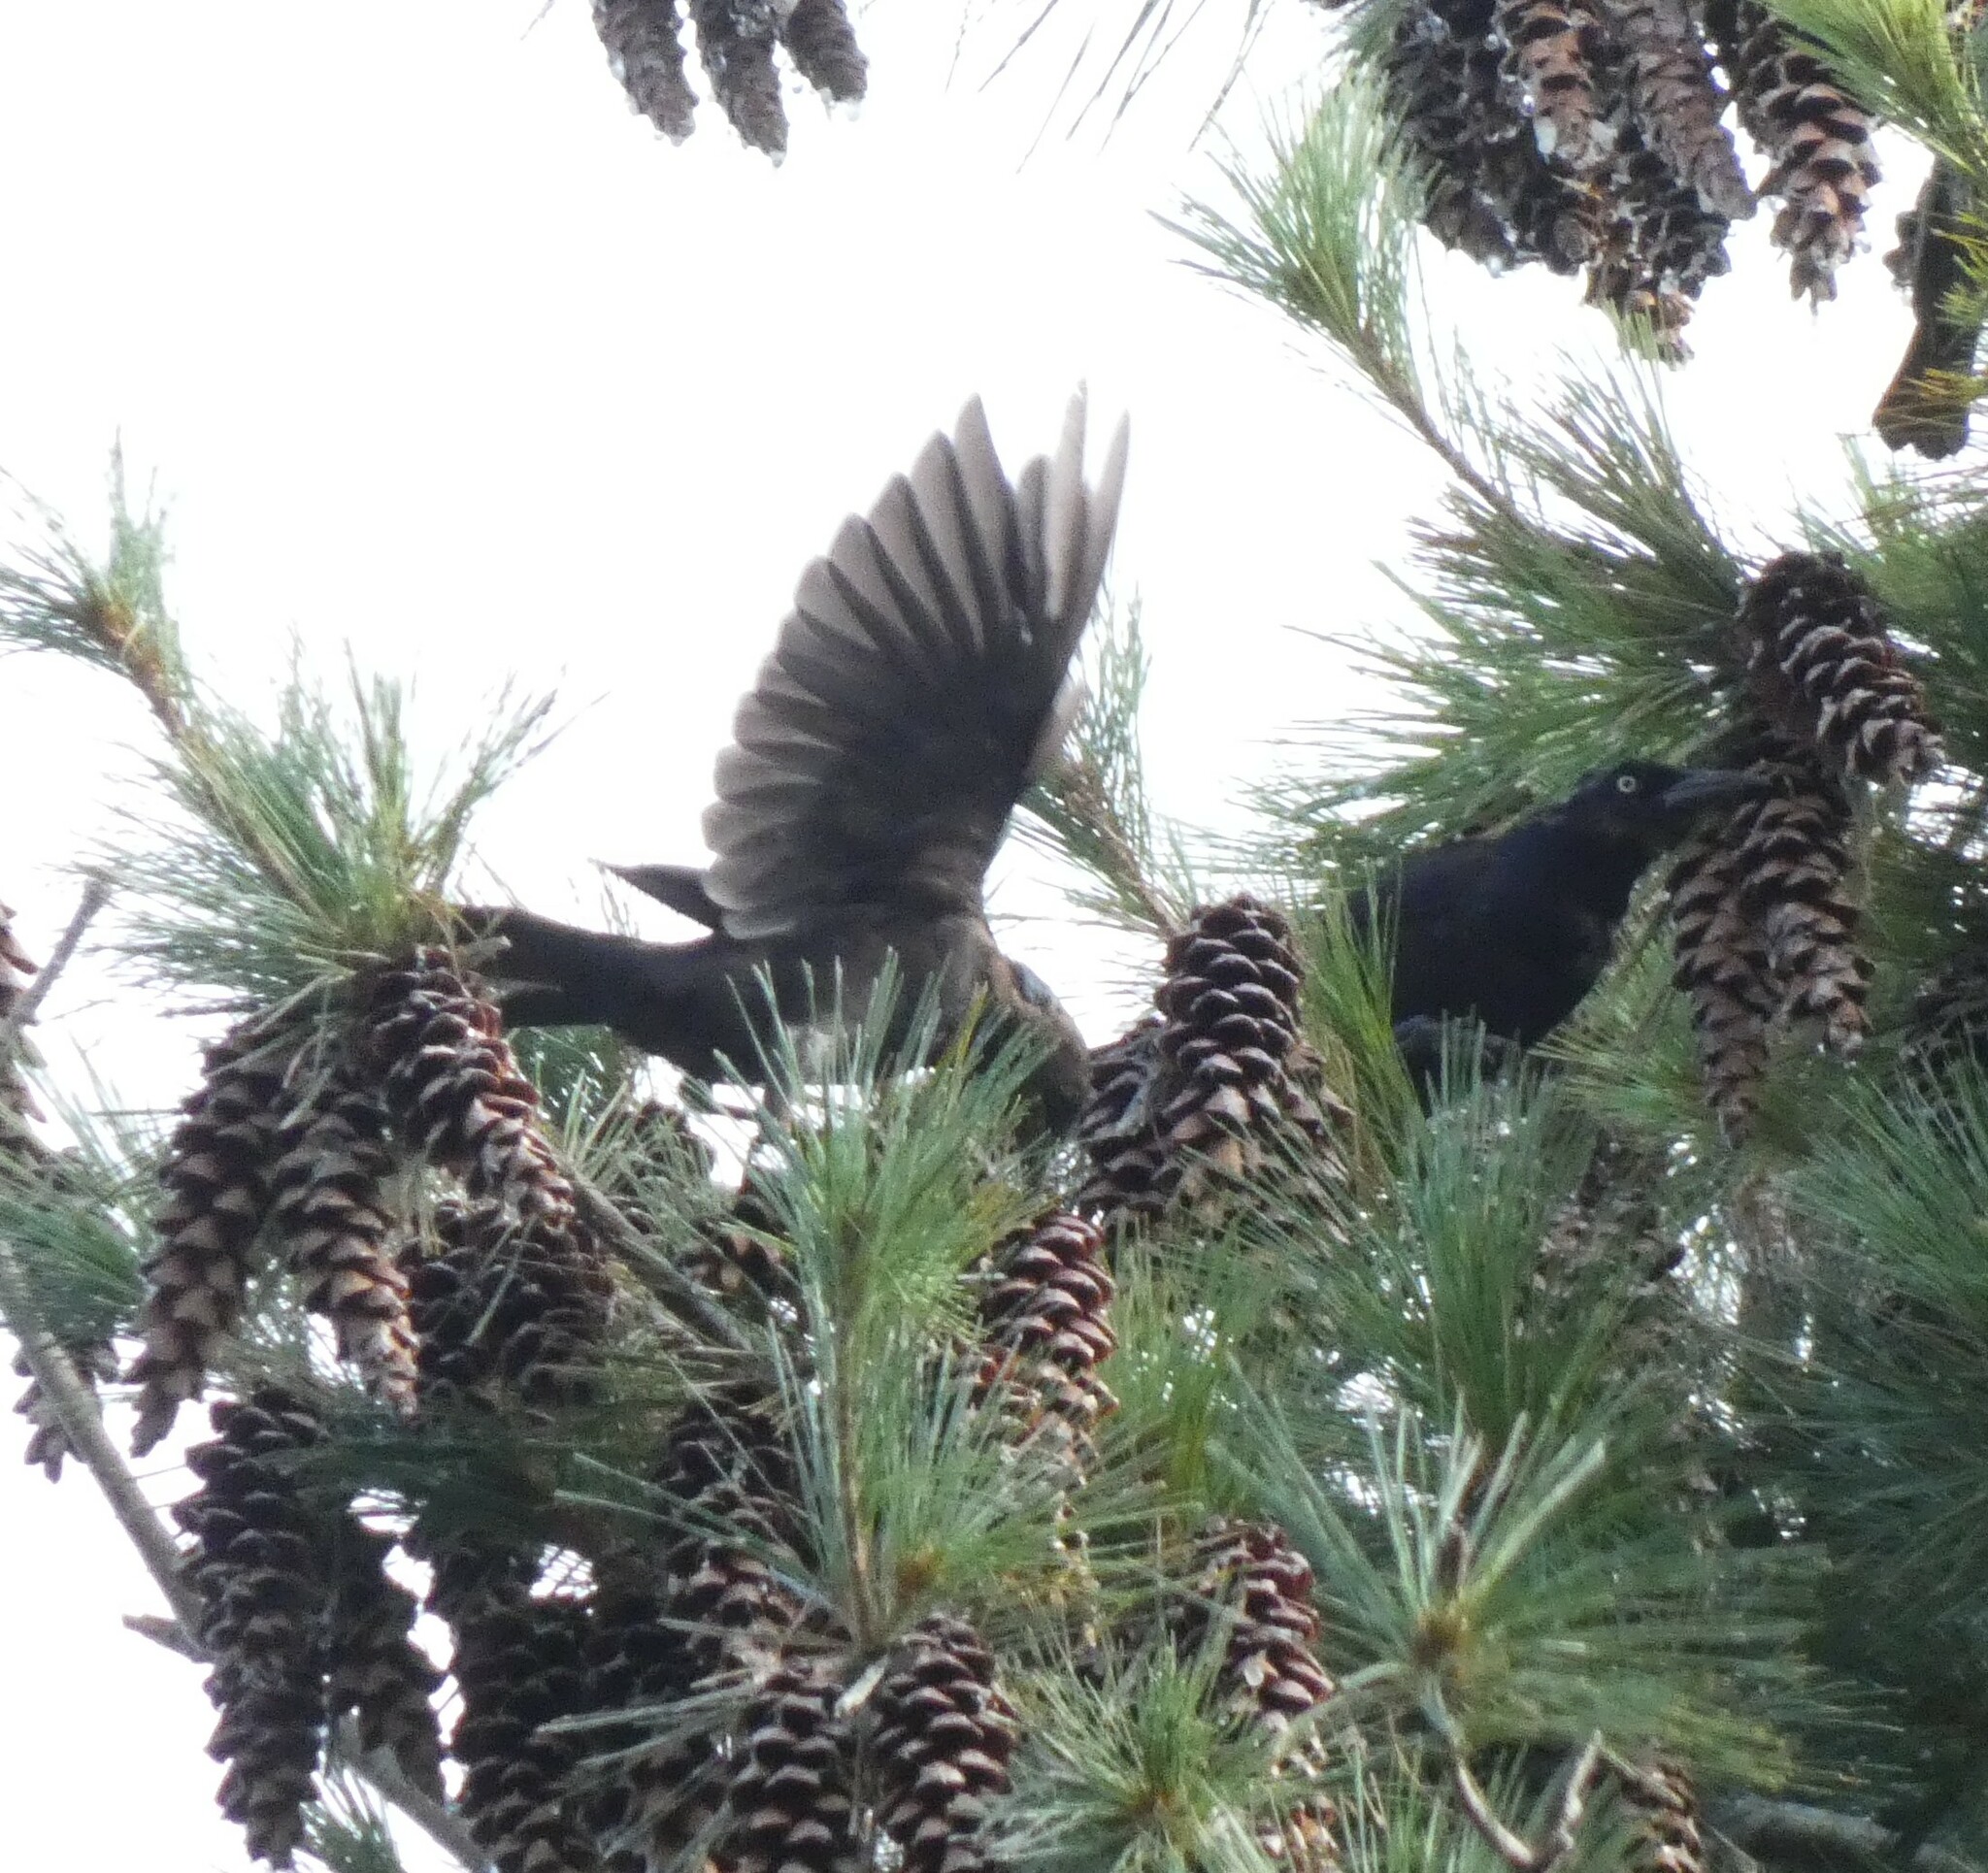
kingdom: Animalia
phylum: Chordata
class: Aves
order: Passeriformes
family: Icteridae
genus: Quiscalus
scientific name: Quiscalus quiscula
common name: Common grackle
